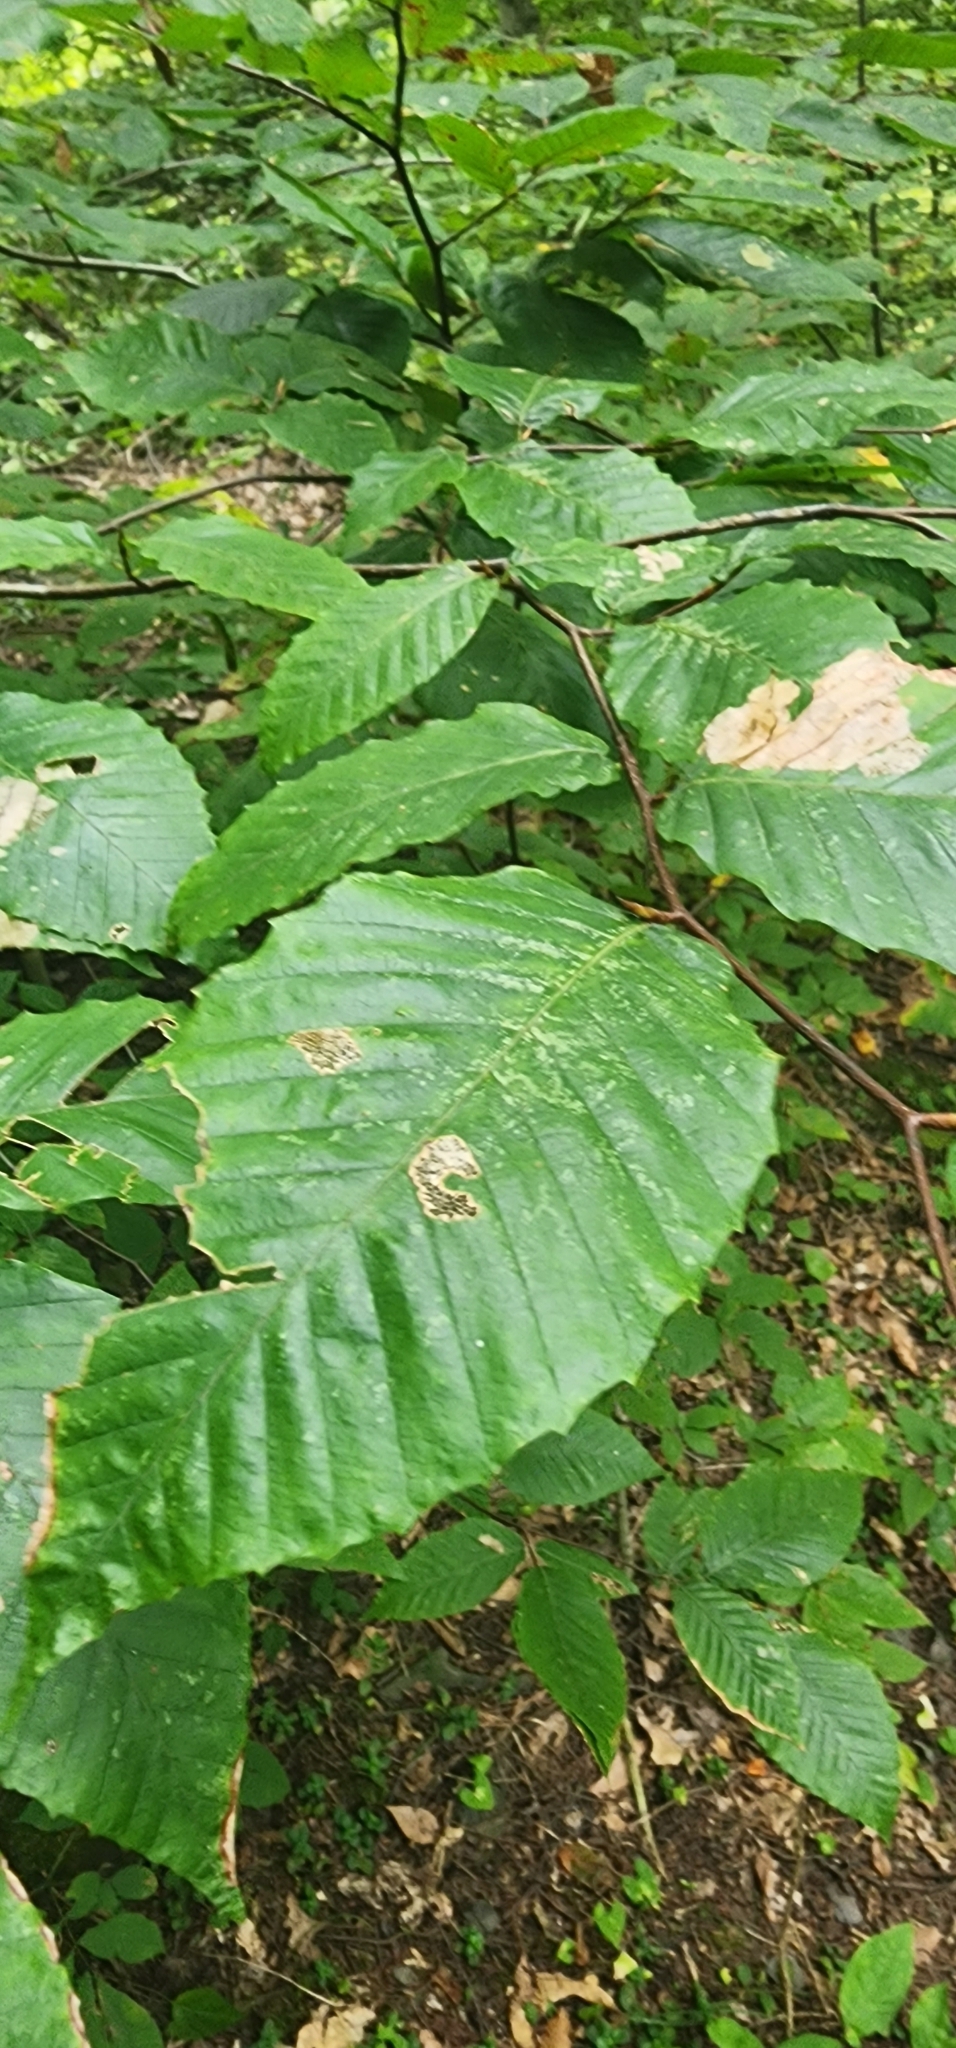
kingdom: Plantae
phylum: Tracheophyta
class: Magnoliopsida
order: Fagales
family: Fagaceae
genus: Fagus
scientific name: Fagus grandifolia
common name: American beech
